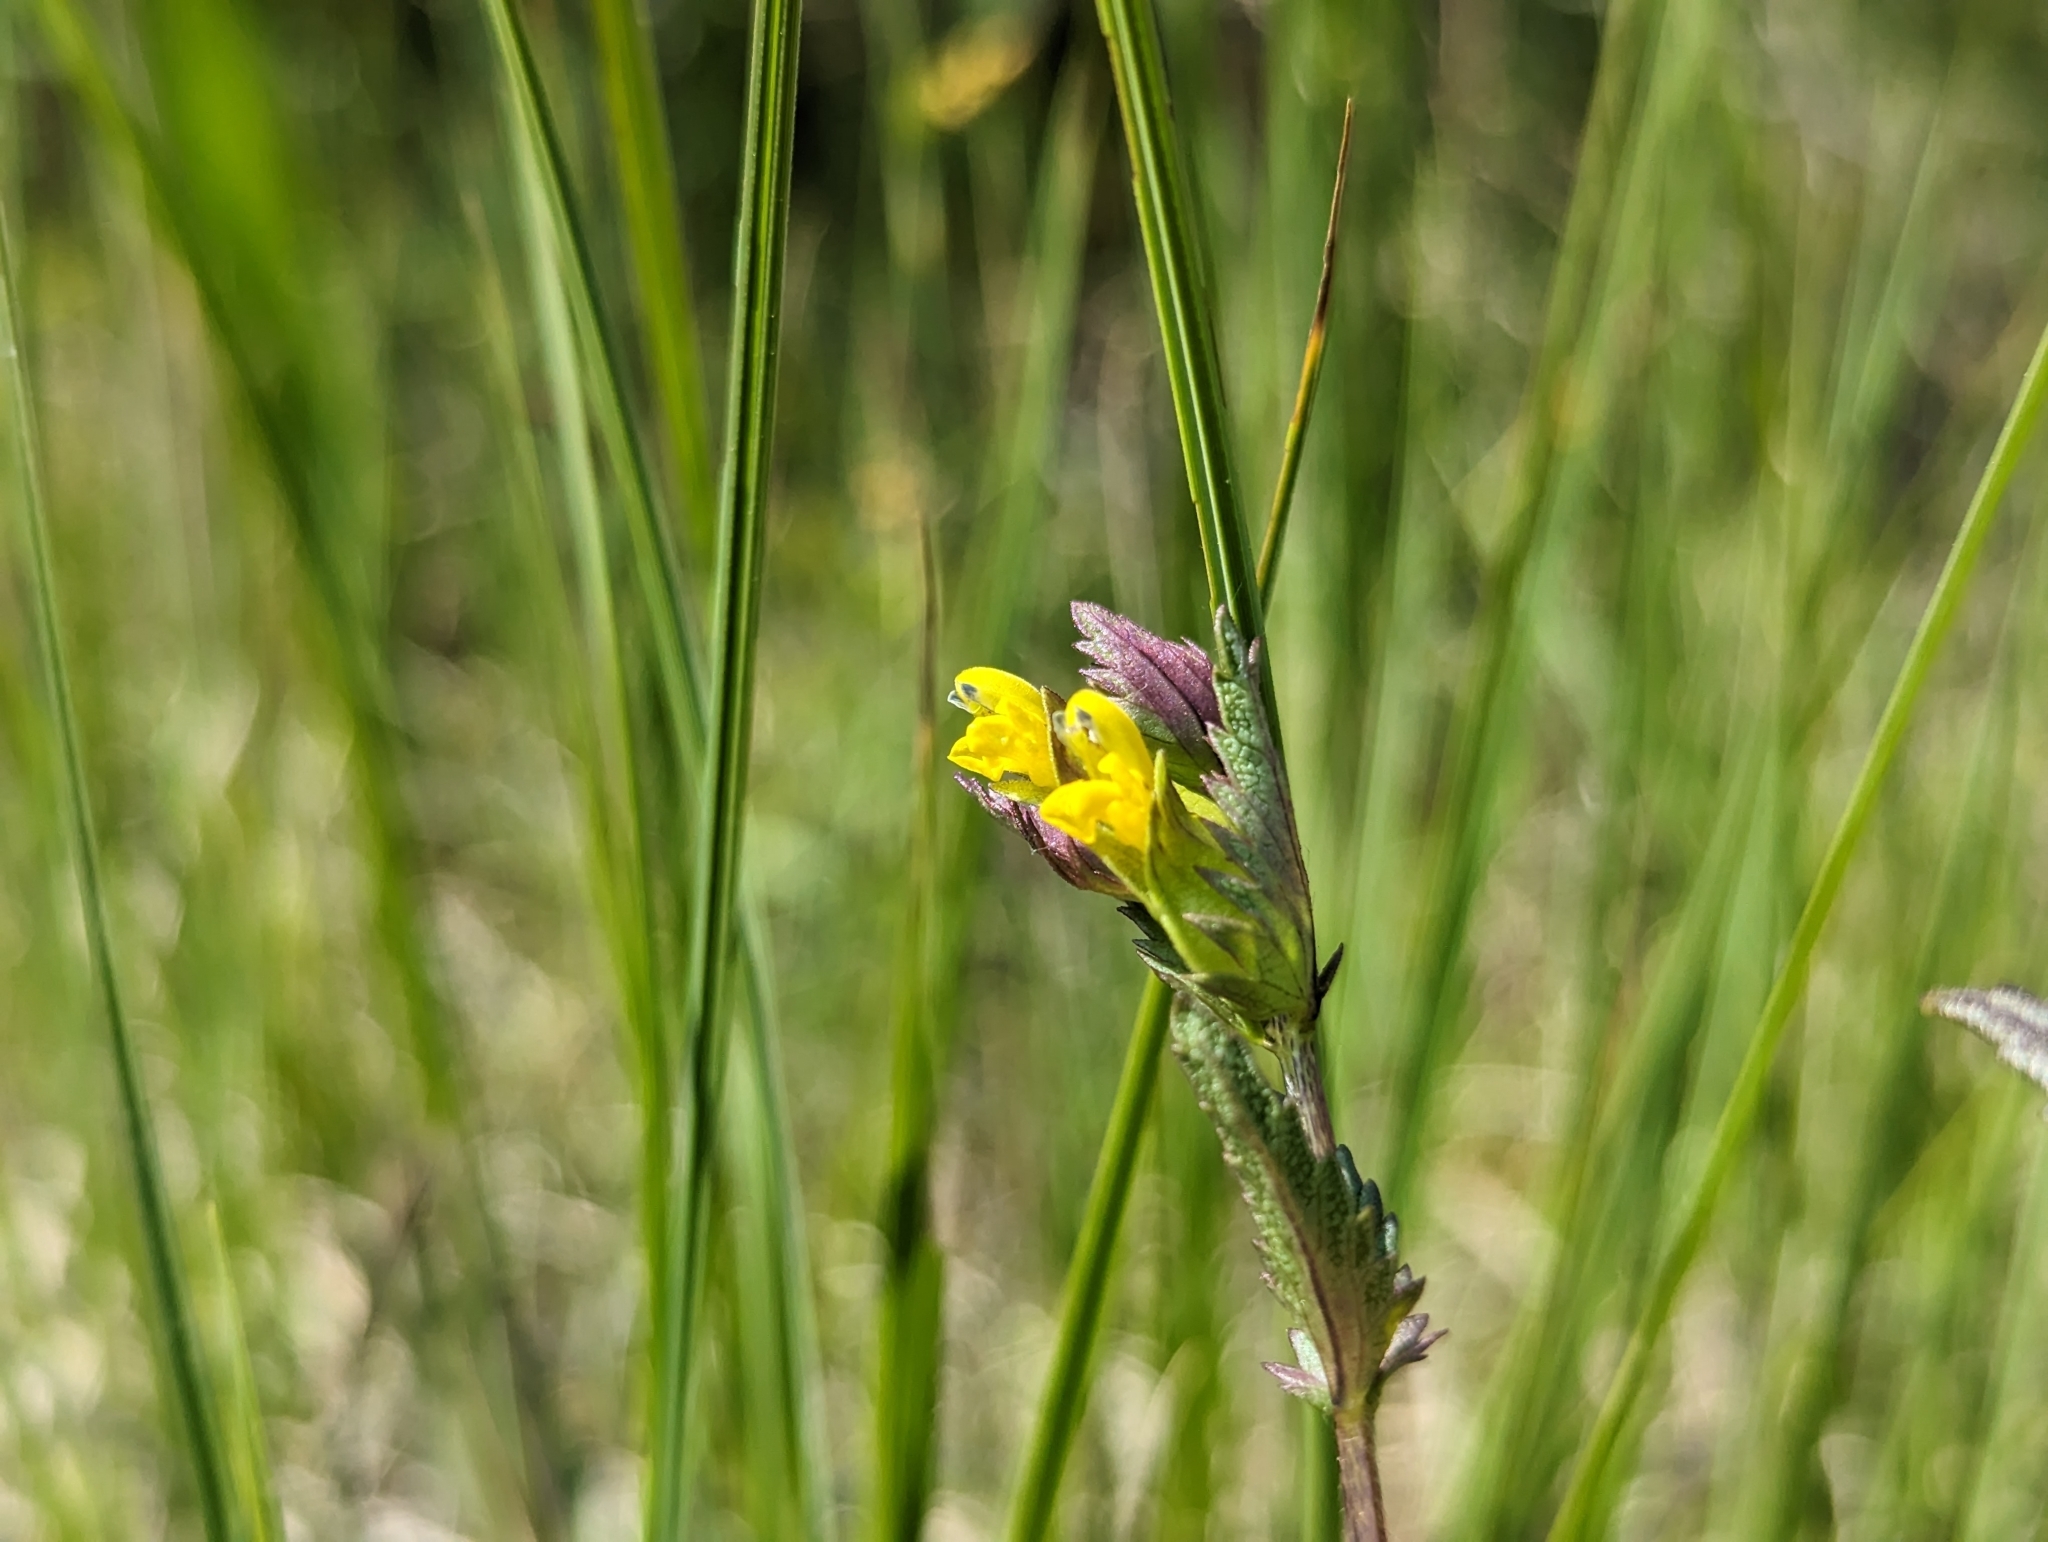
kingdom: Plantae
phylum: Tracheophyta
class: Magnoliopsida
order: Lamiales
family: Orobanchaceae
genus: Rhinanthus
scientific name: Rhinanthus minor
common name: Yellow-rattle
